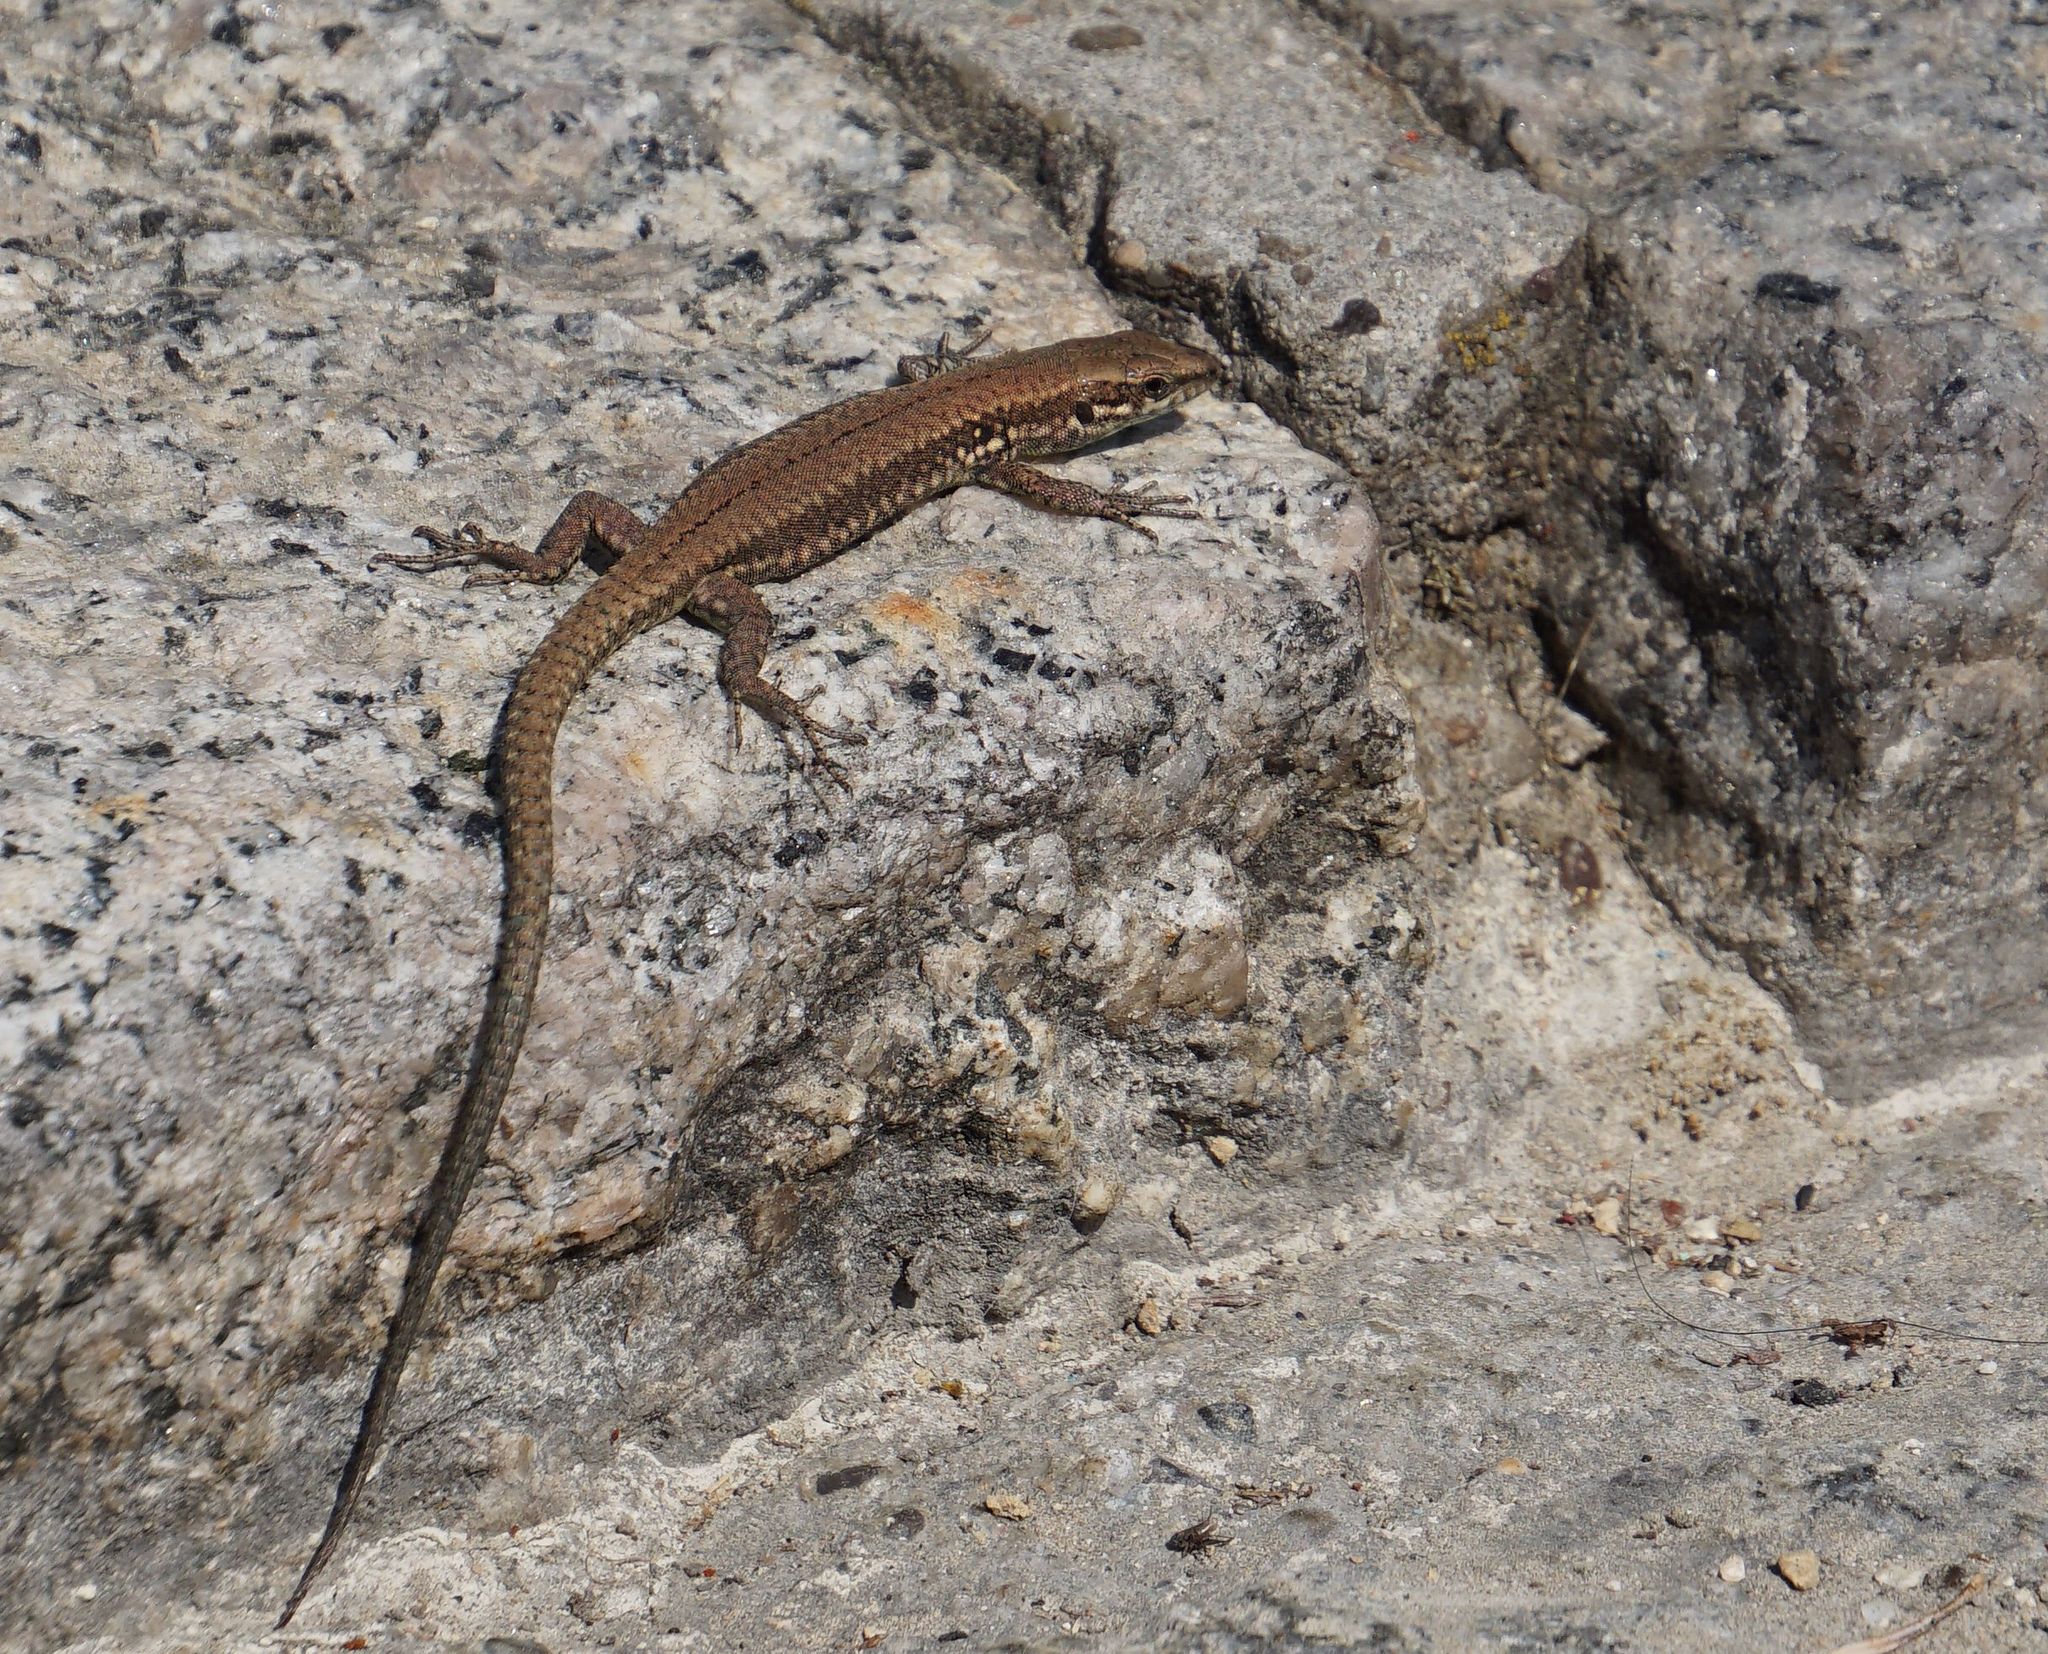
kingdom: Animalia
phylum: Chordata
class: Squamata
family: Lacertidae
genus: Podarcis
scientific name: Podarcis muralis
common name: Common wall lizard
